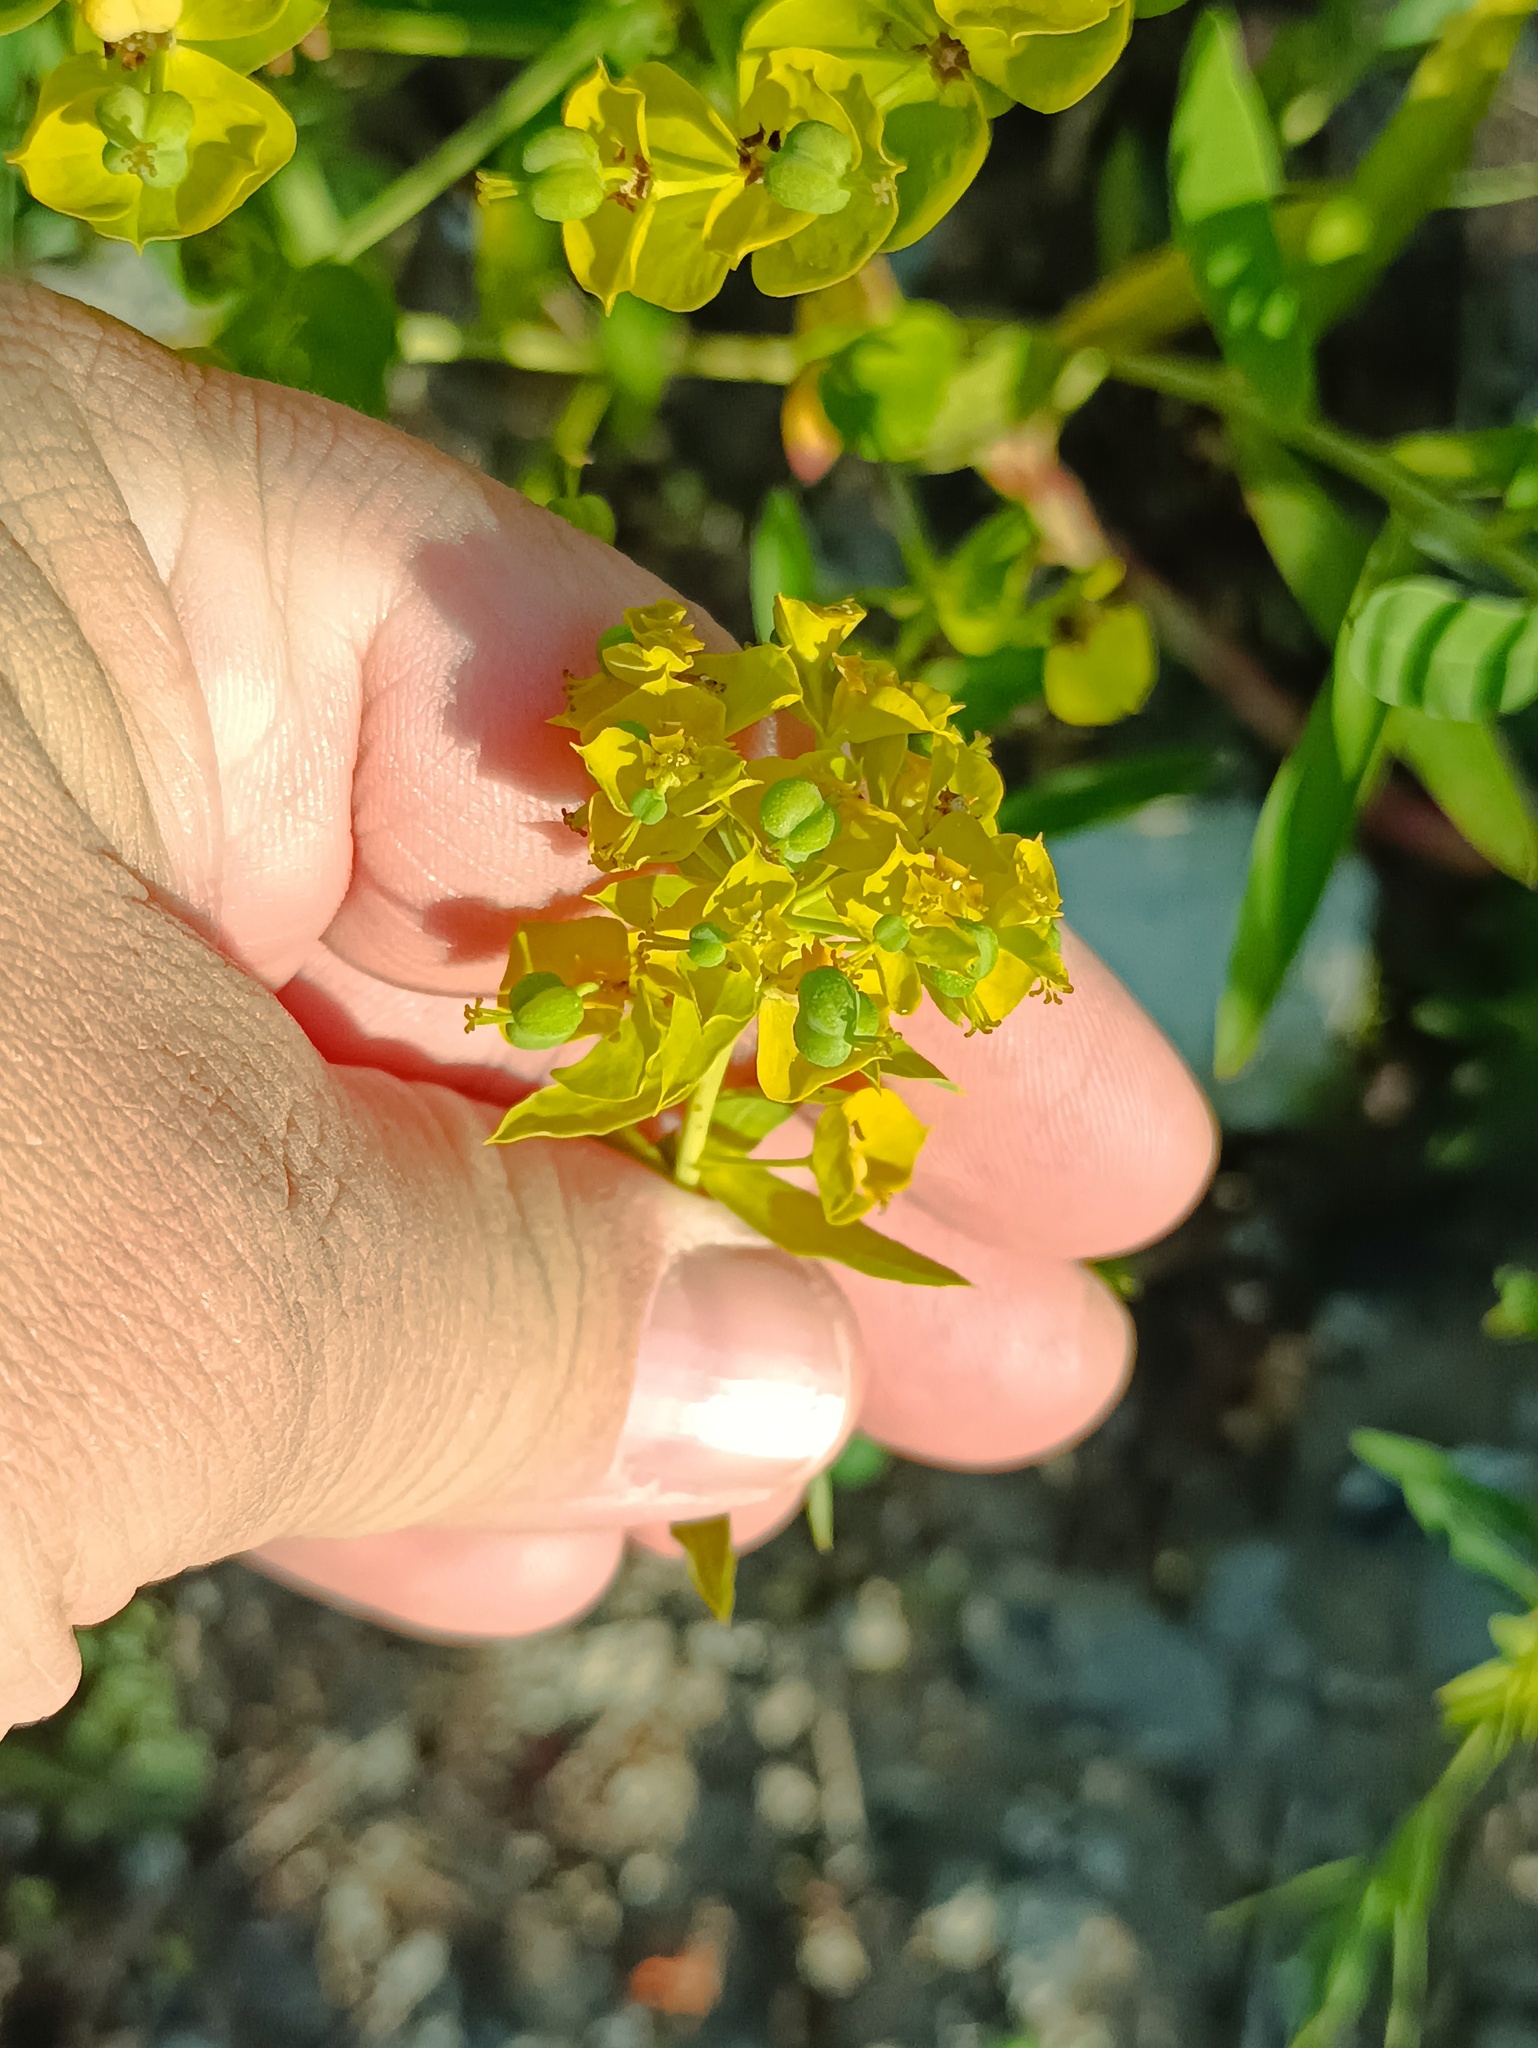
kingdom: Plantae
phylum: Tracheophyta
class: Magnoliopsida
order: Malpighiales
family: Euphorbiaceae
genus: Euphorbia
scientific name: Euphorbia virgata
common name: Leafy spurge
